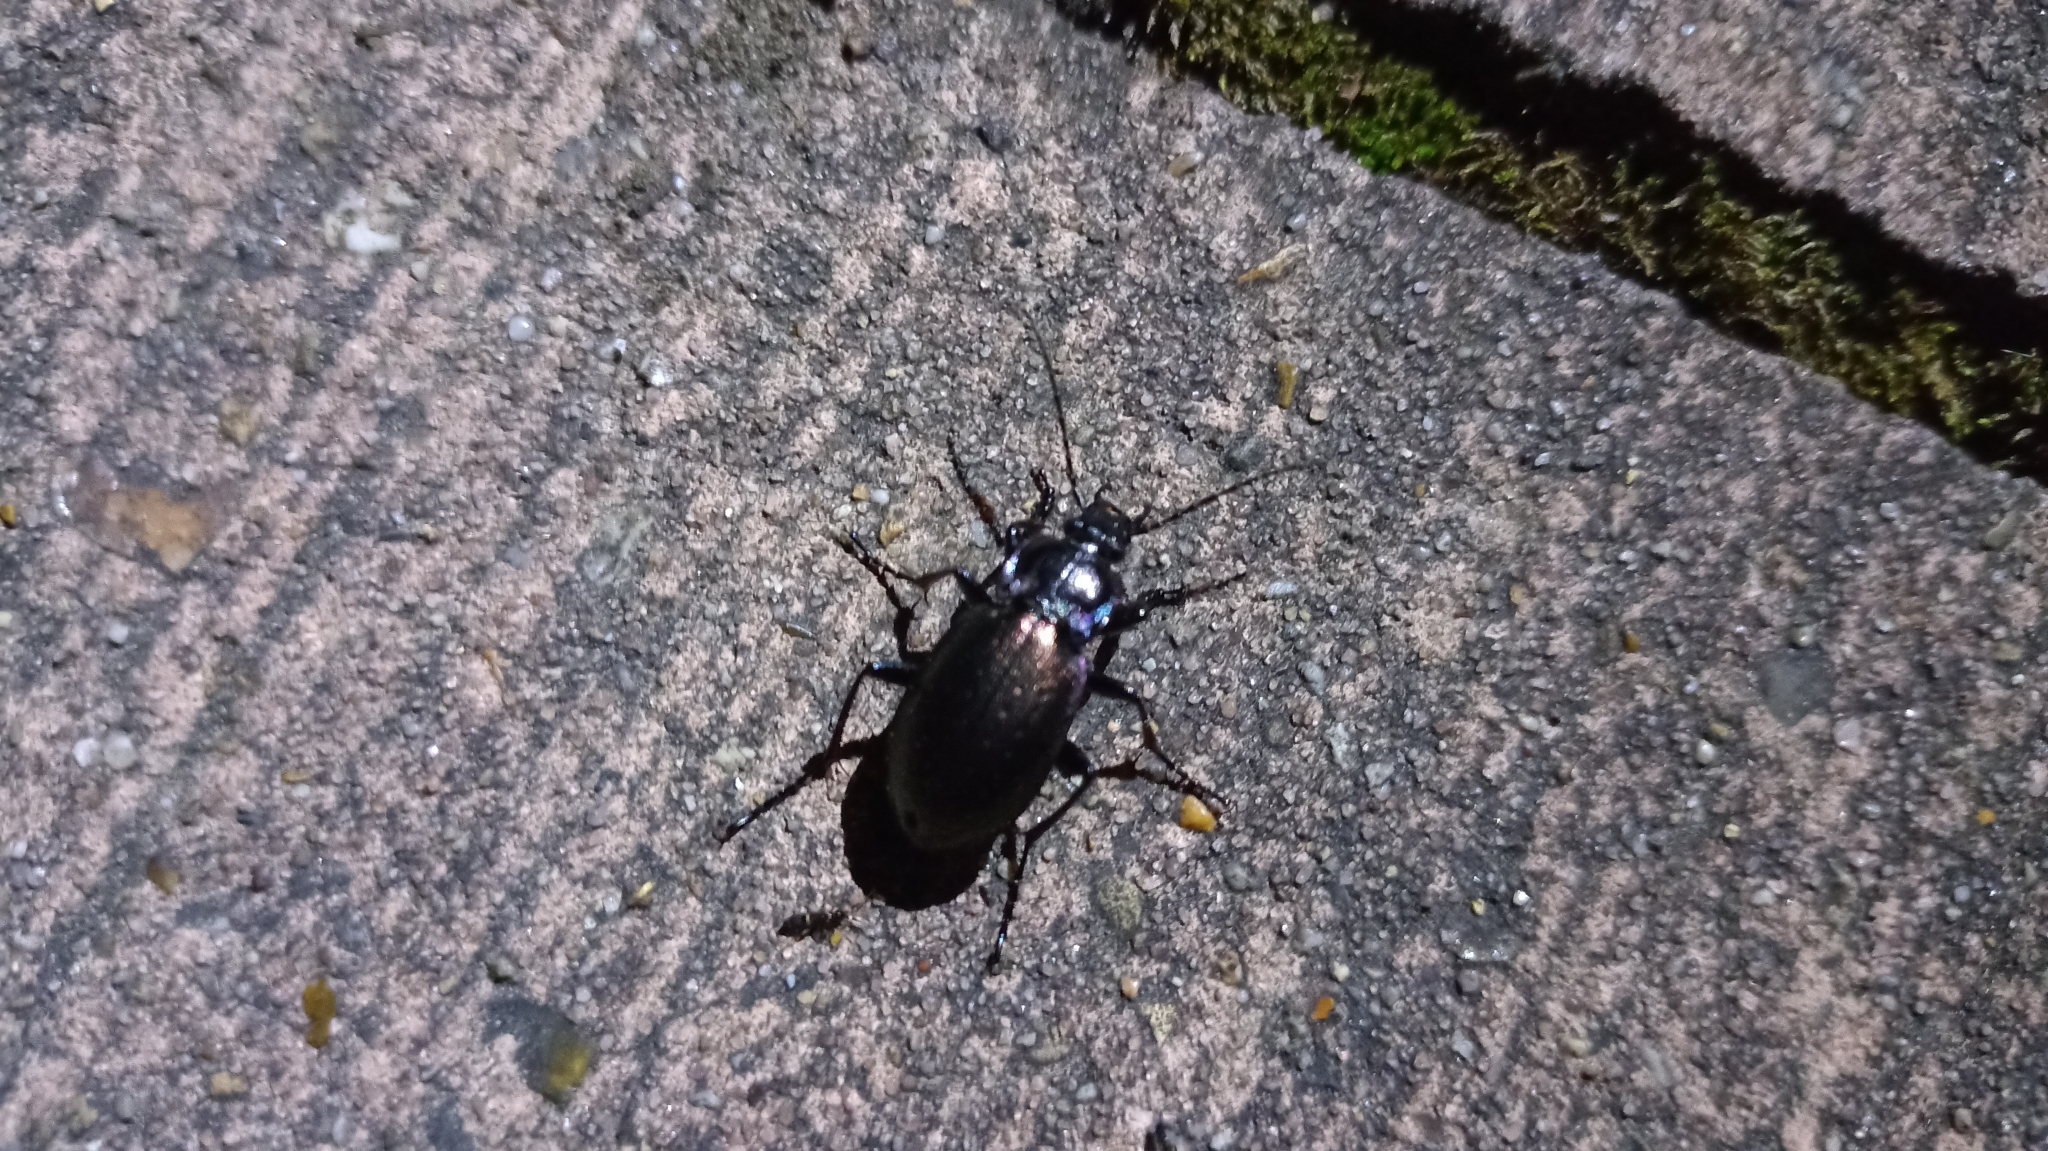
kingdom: Animalia
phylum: Arthropoda
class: Insecta
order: Coleoptera
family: Carabidae
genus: Carabus
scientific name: Carabus nemoralis
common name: European ground beetle
